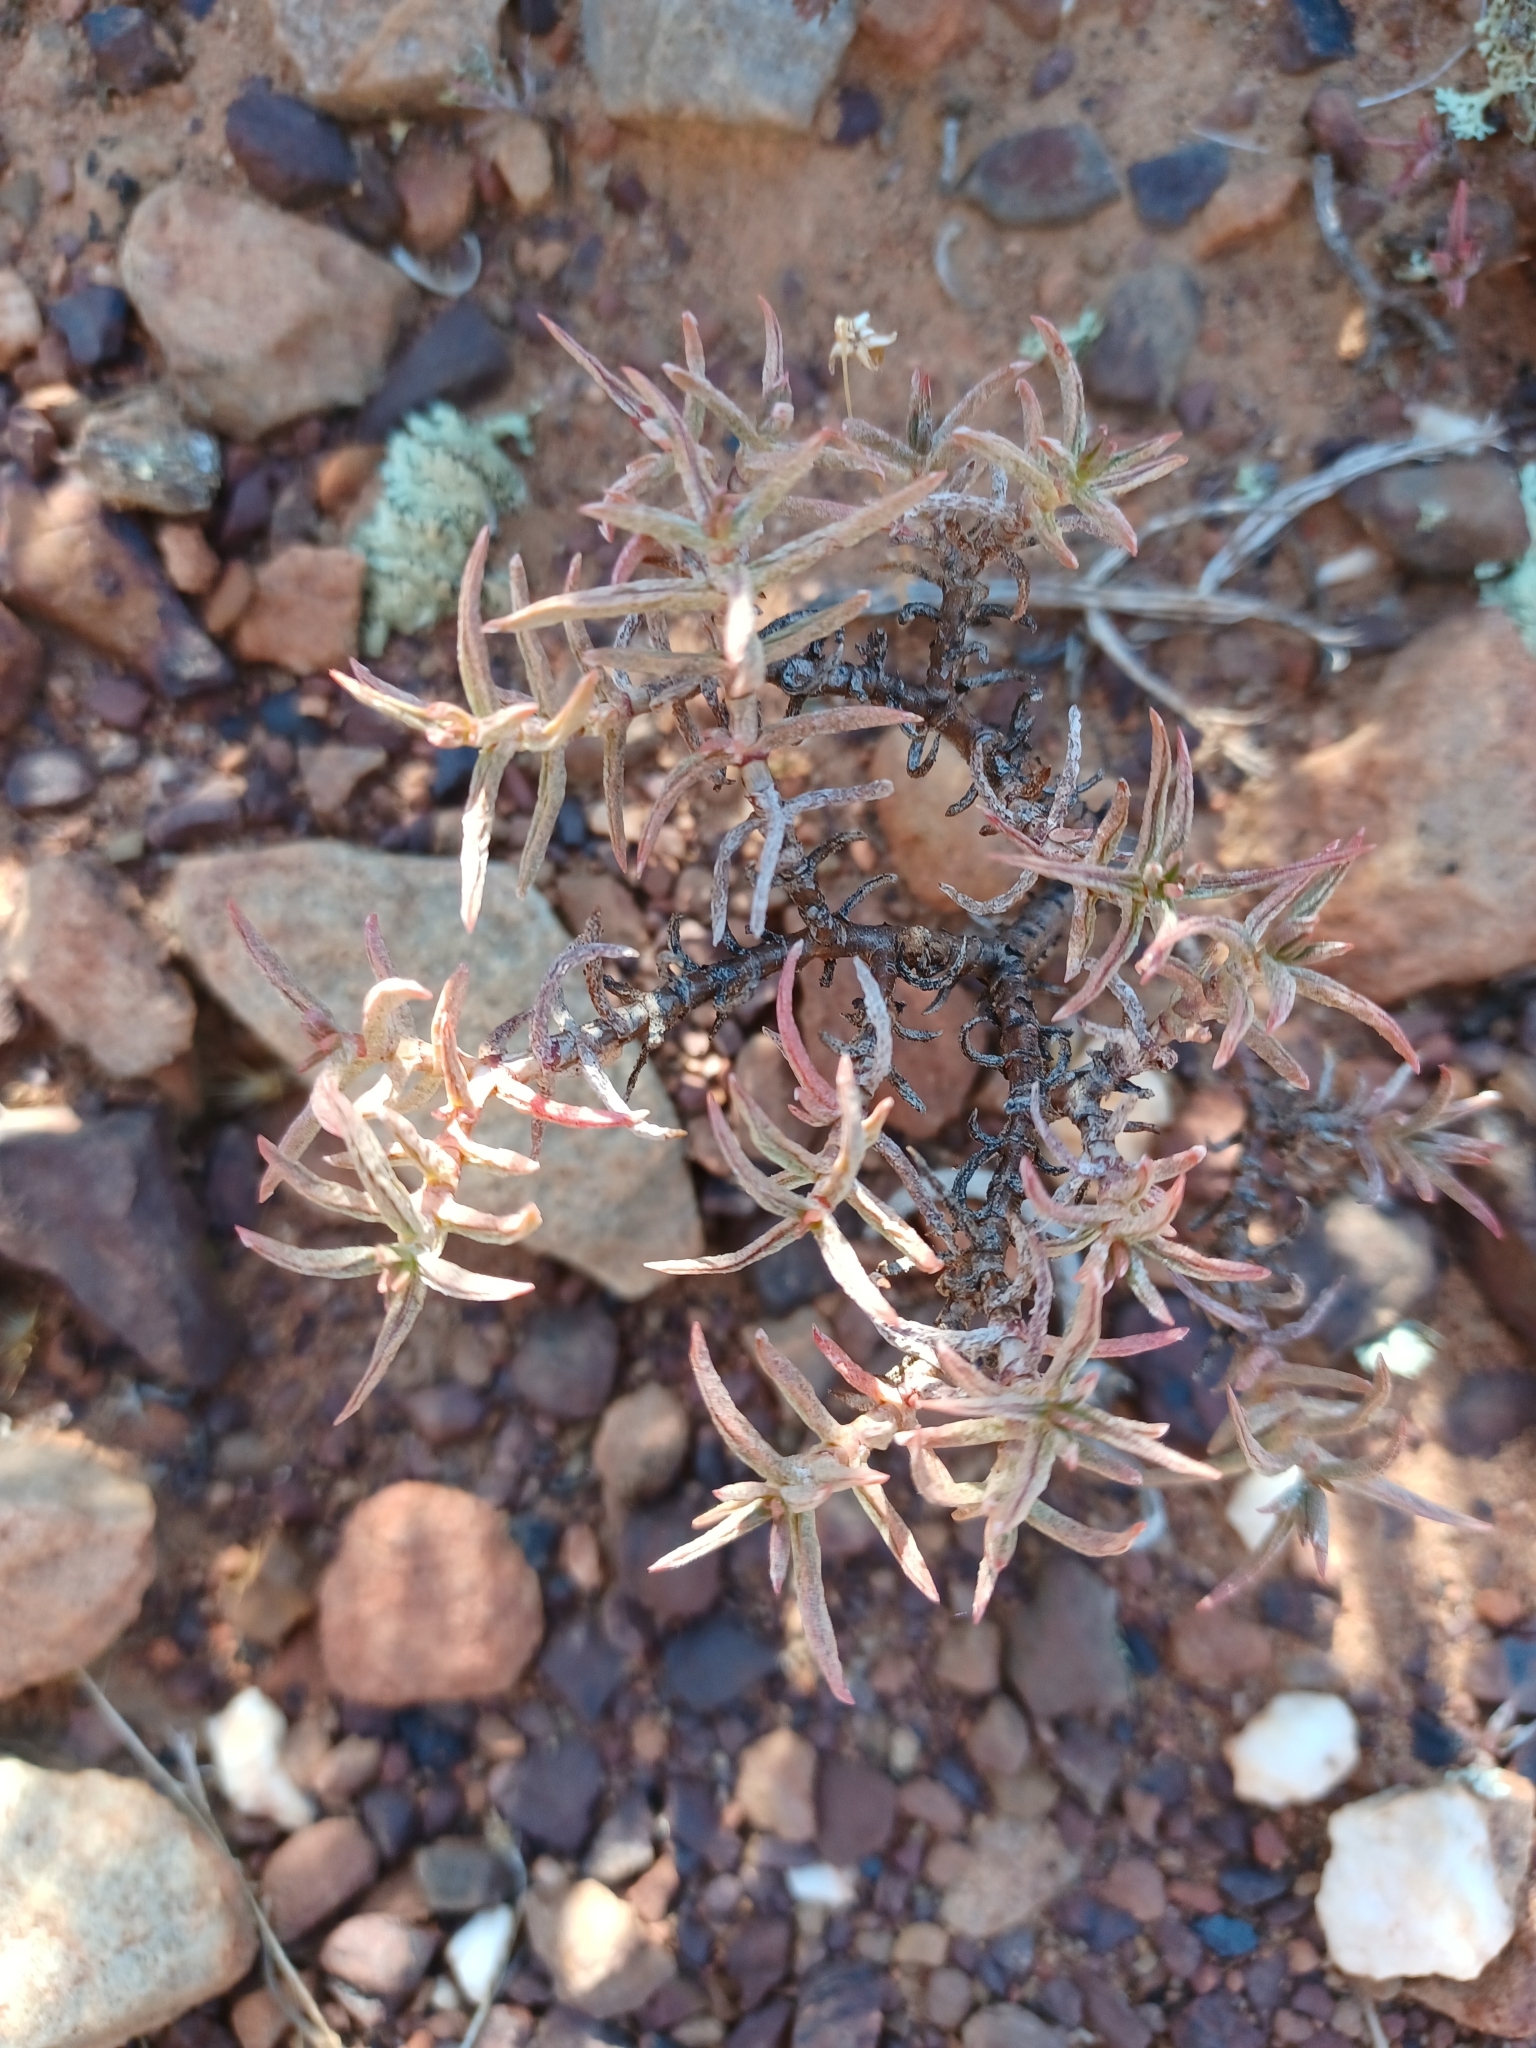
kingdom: Plantae
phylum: Tracheophyta
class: Magnoliopsida
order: Saxifragales
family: Crassulaceae
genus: Crassula
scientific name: Crassula tetragona
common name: Pygmyweed
